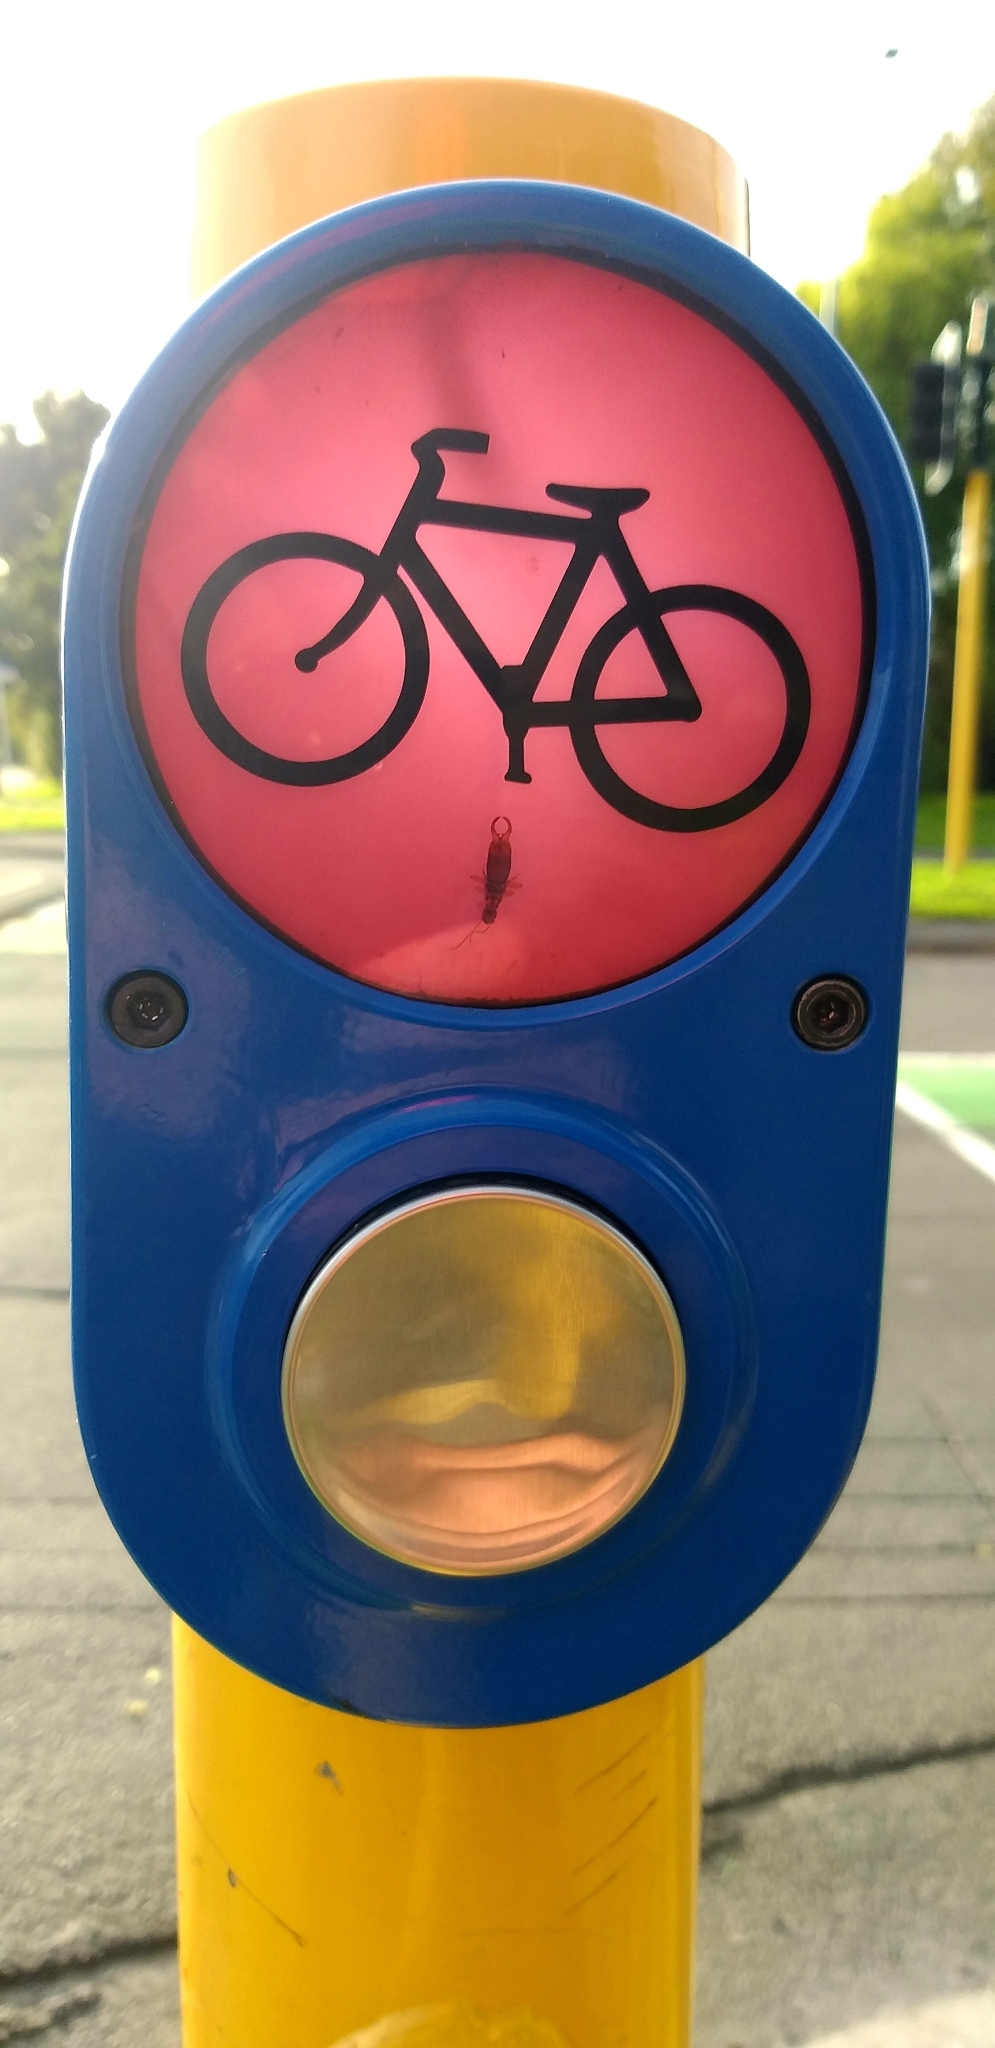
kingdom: Animalia
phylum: Arthropoda
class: Insecta
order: Dermaptera
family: Forficulidae
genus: Forficula
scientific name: Forficula
